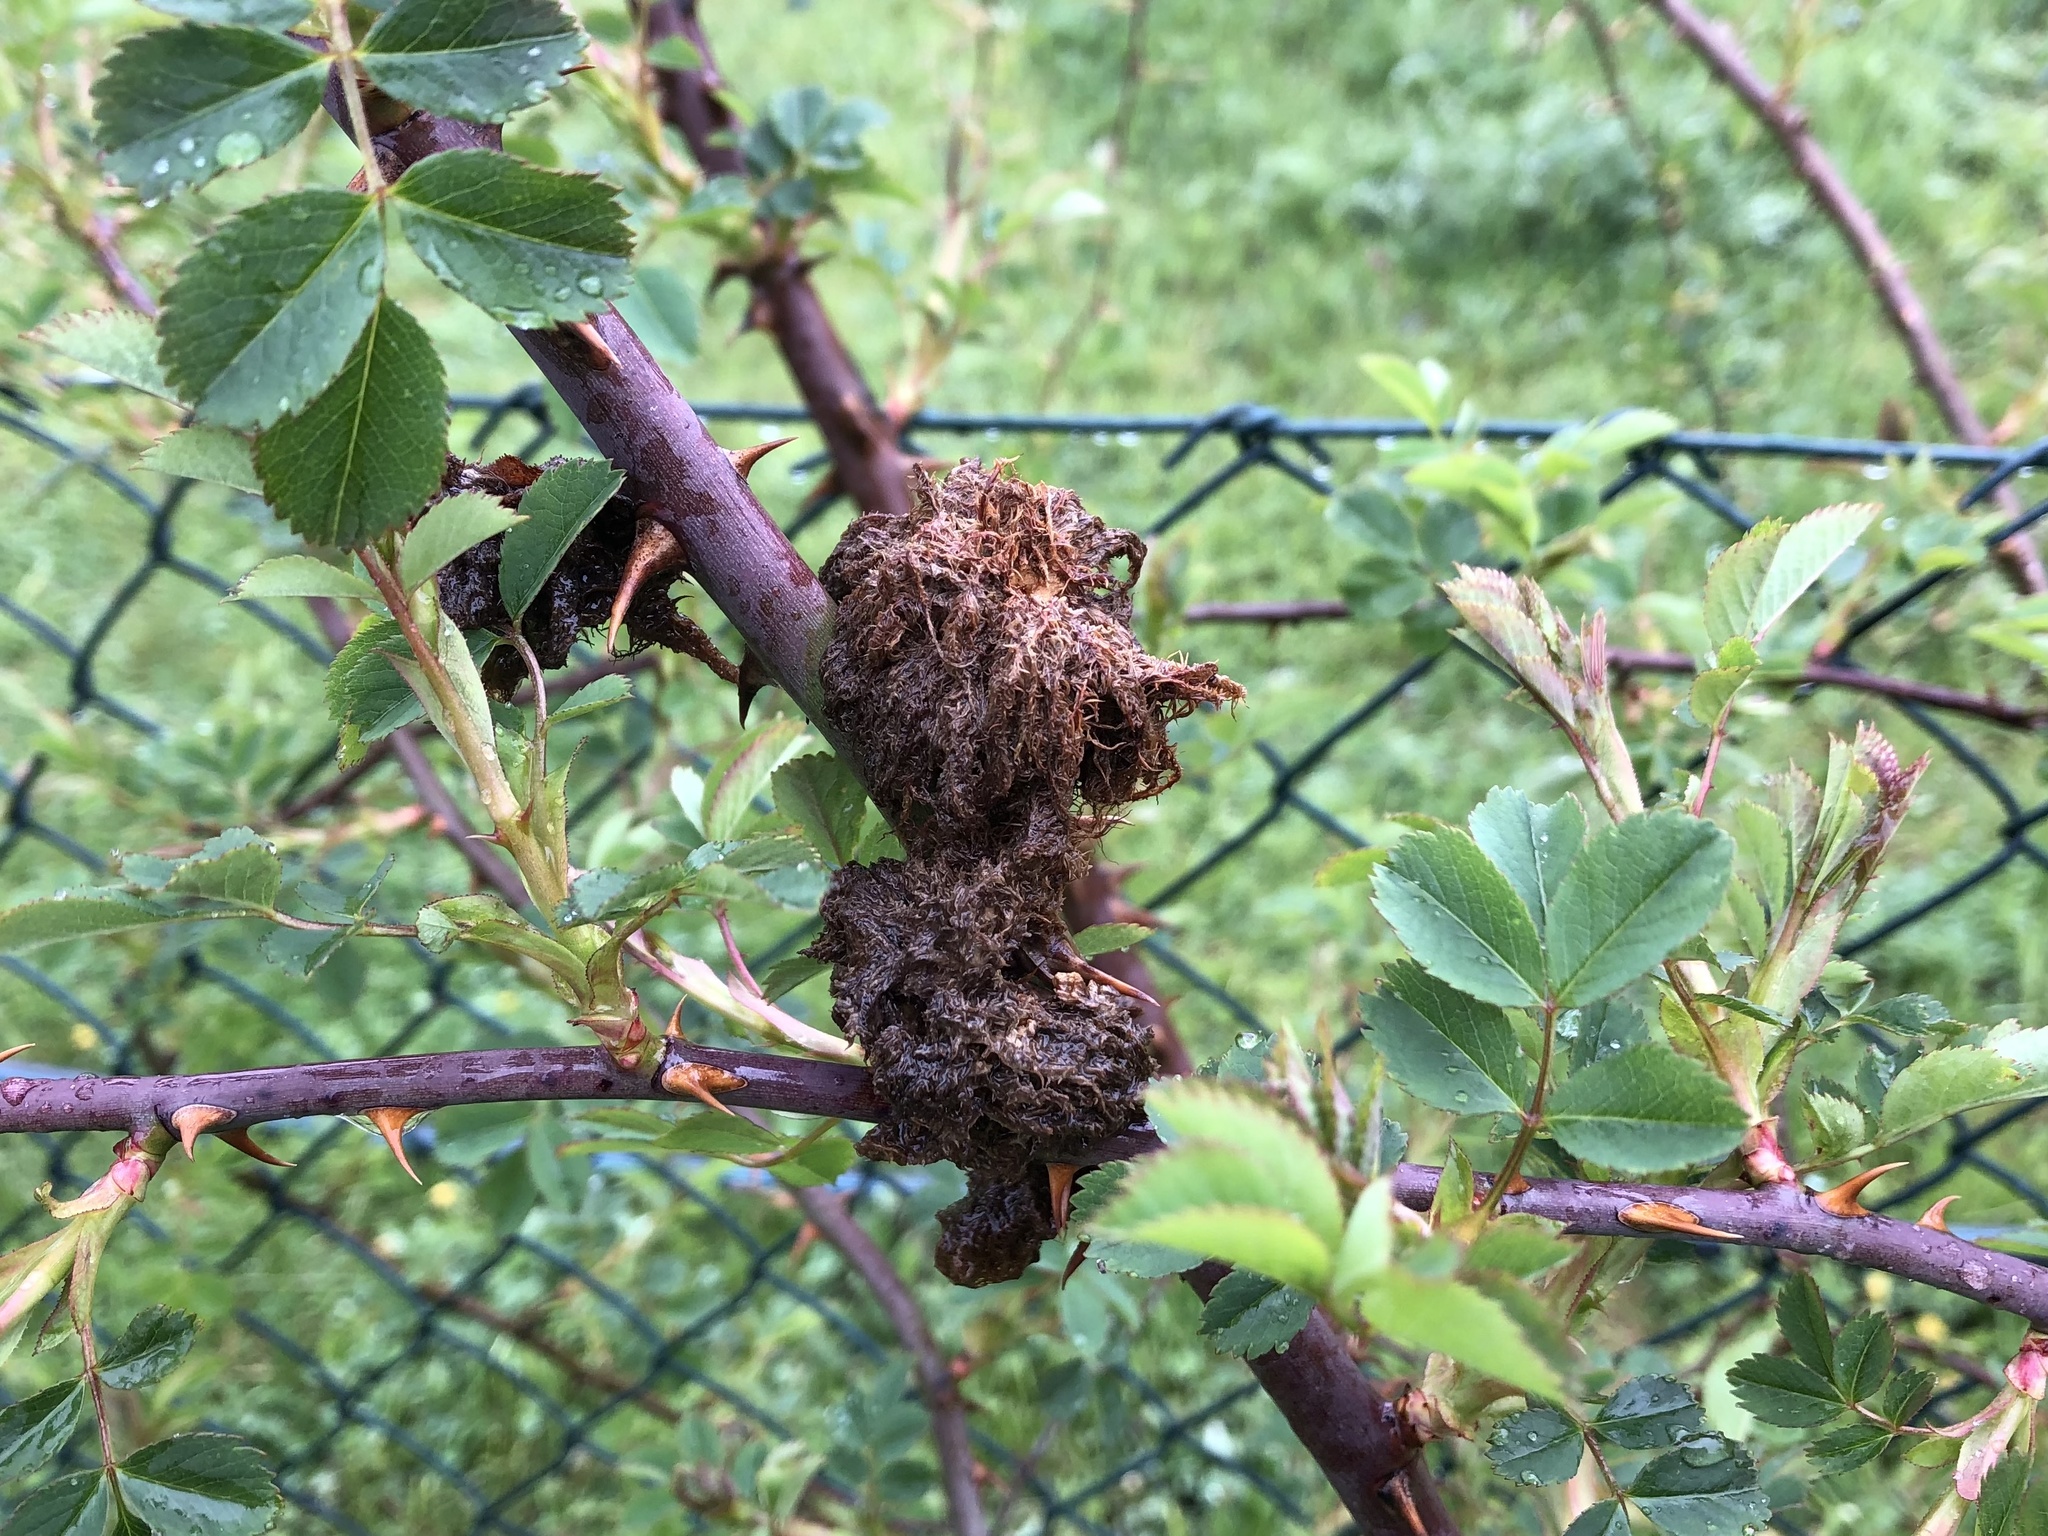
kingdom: Animalia
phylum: Arthropoda
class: Insecta
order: Hymenoptera
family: Cynipidae
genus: Diplolepis
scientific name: Diplolepis rosae
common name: Bedeguar gall
